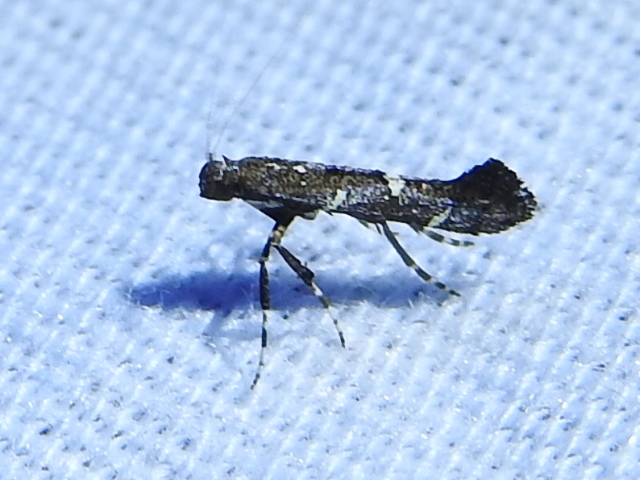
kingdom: Animalia
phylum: Arthropoda
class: Insecta
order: Lepidoptera
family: Gracillariidae
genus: Caloptilia
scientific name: Caloptilia triadicae
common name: Tallow leaf roller
